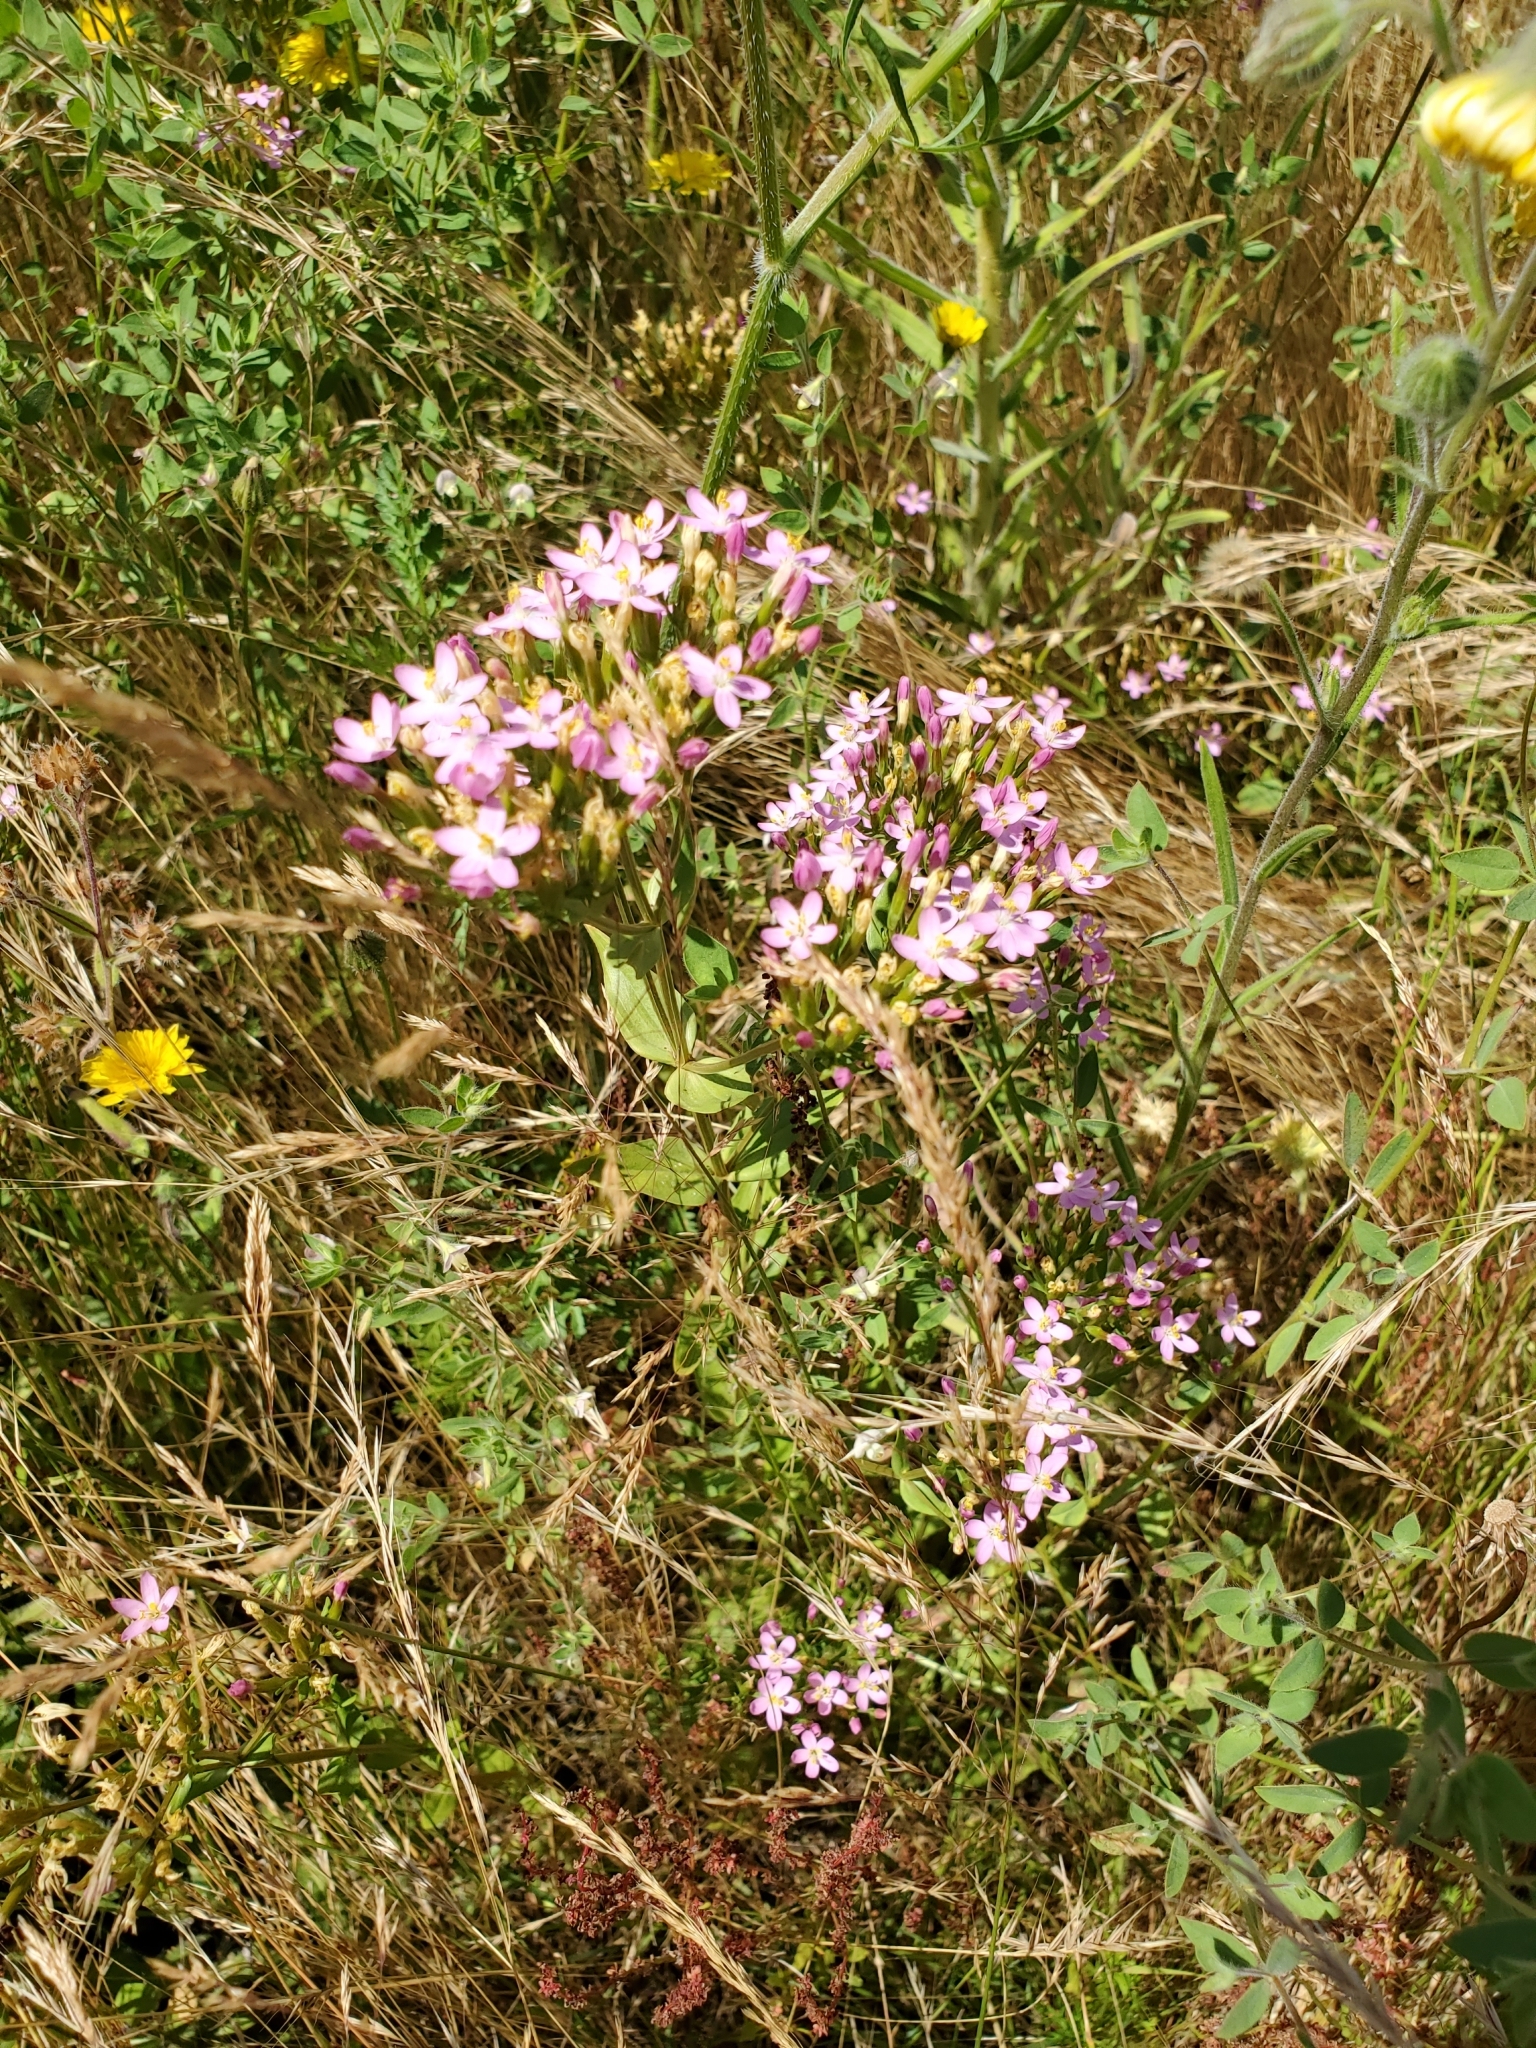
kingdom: Plantae
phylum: Tracheophyta
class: Magnoliopsida
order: Gentianales
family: Gentianaceae
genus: Centaurium
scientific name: Centaurium erythraea
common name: Common centaury
